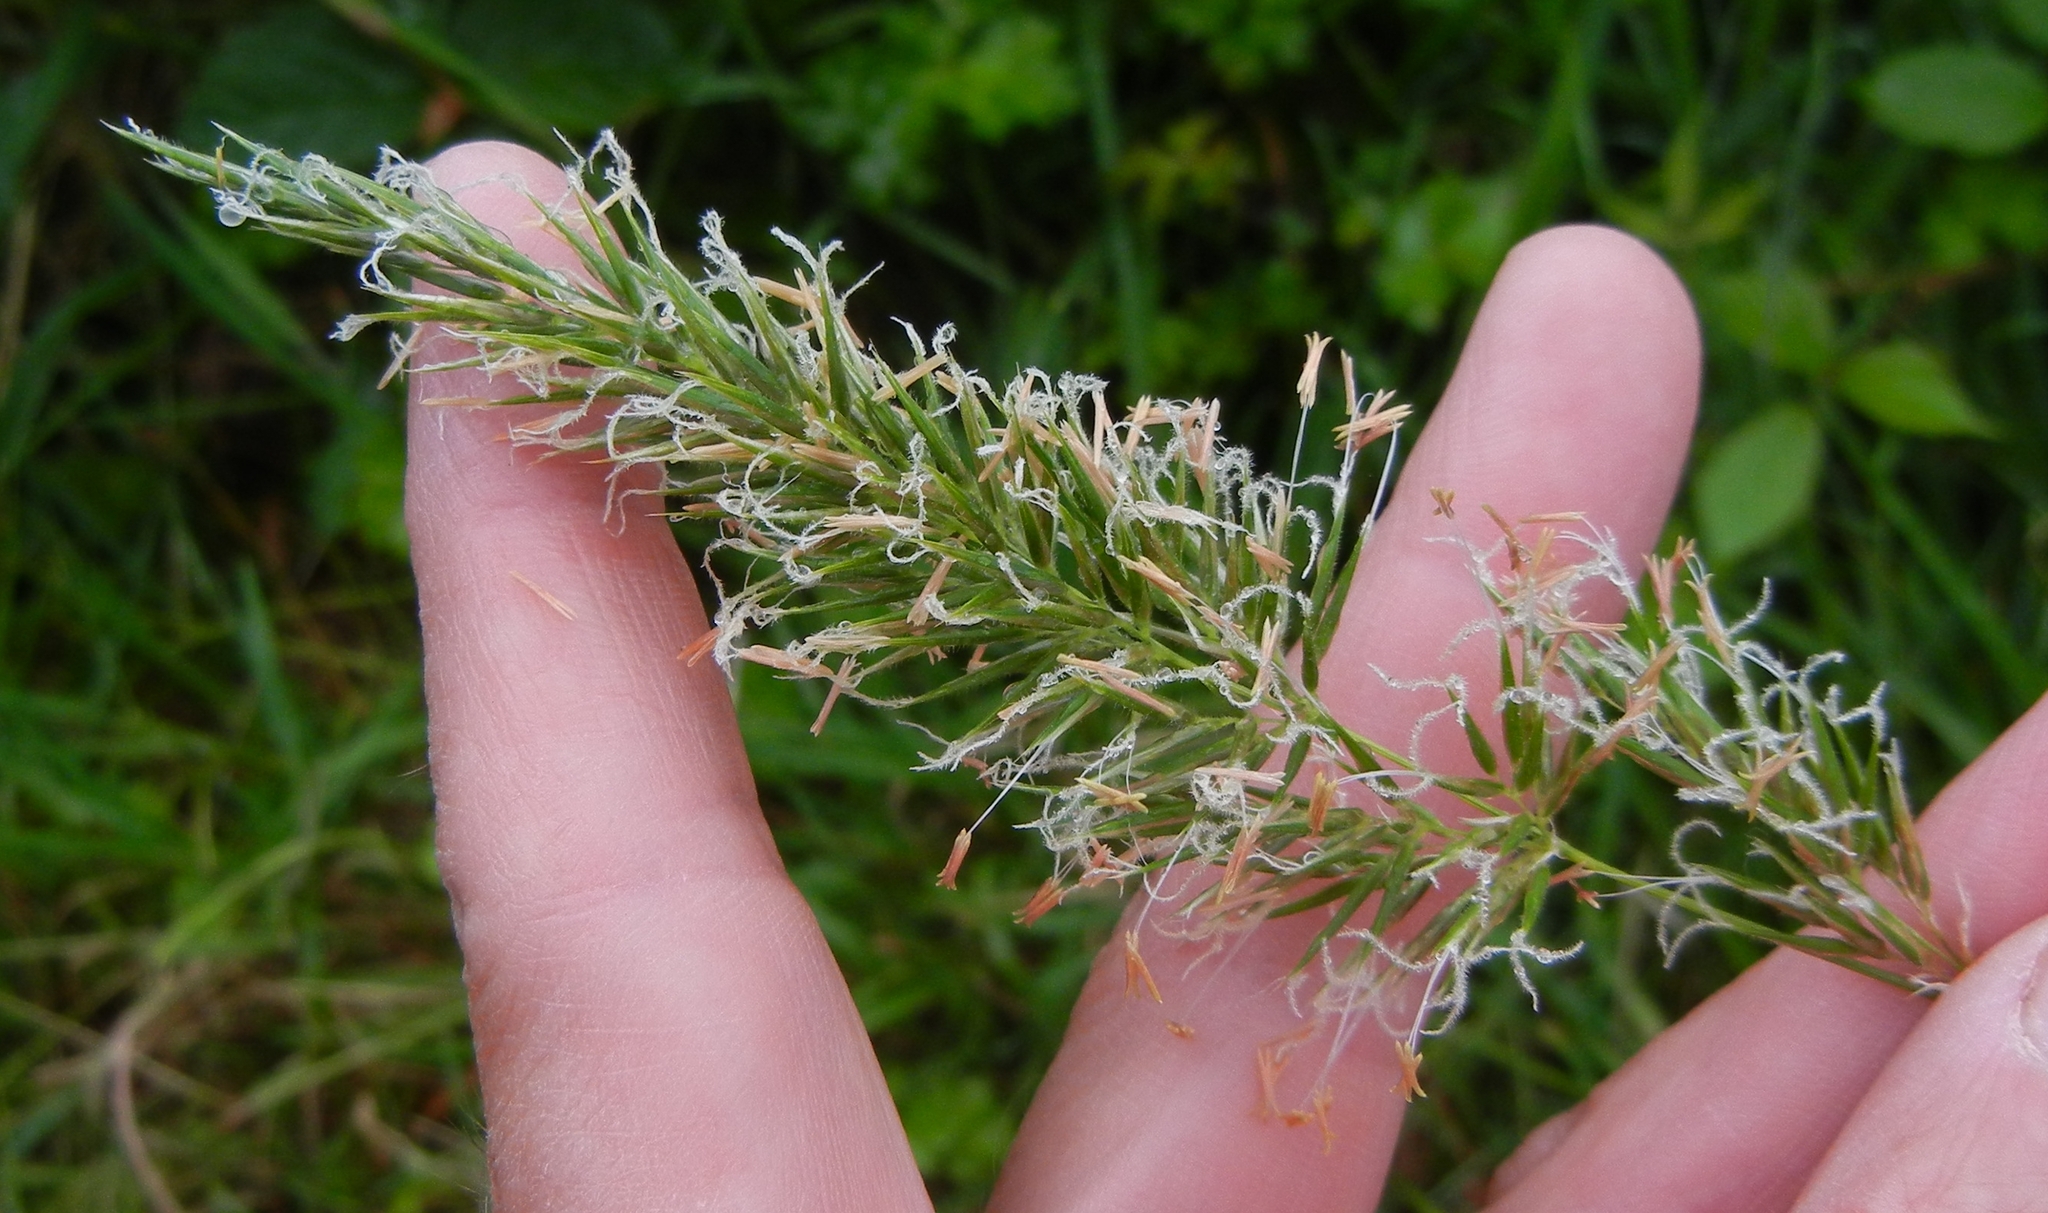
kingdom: Plantae
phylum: Tracheophyta
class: Liliopsida
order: Poales
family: Poaceae
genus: Anthoxanthum
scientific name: Anthoxanthum odoratum
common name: Sweet vernalgrass
